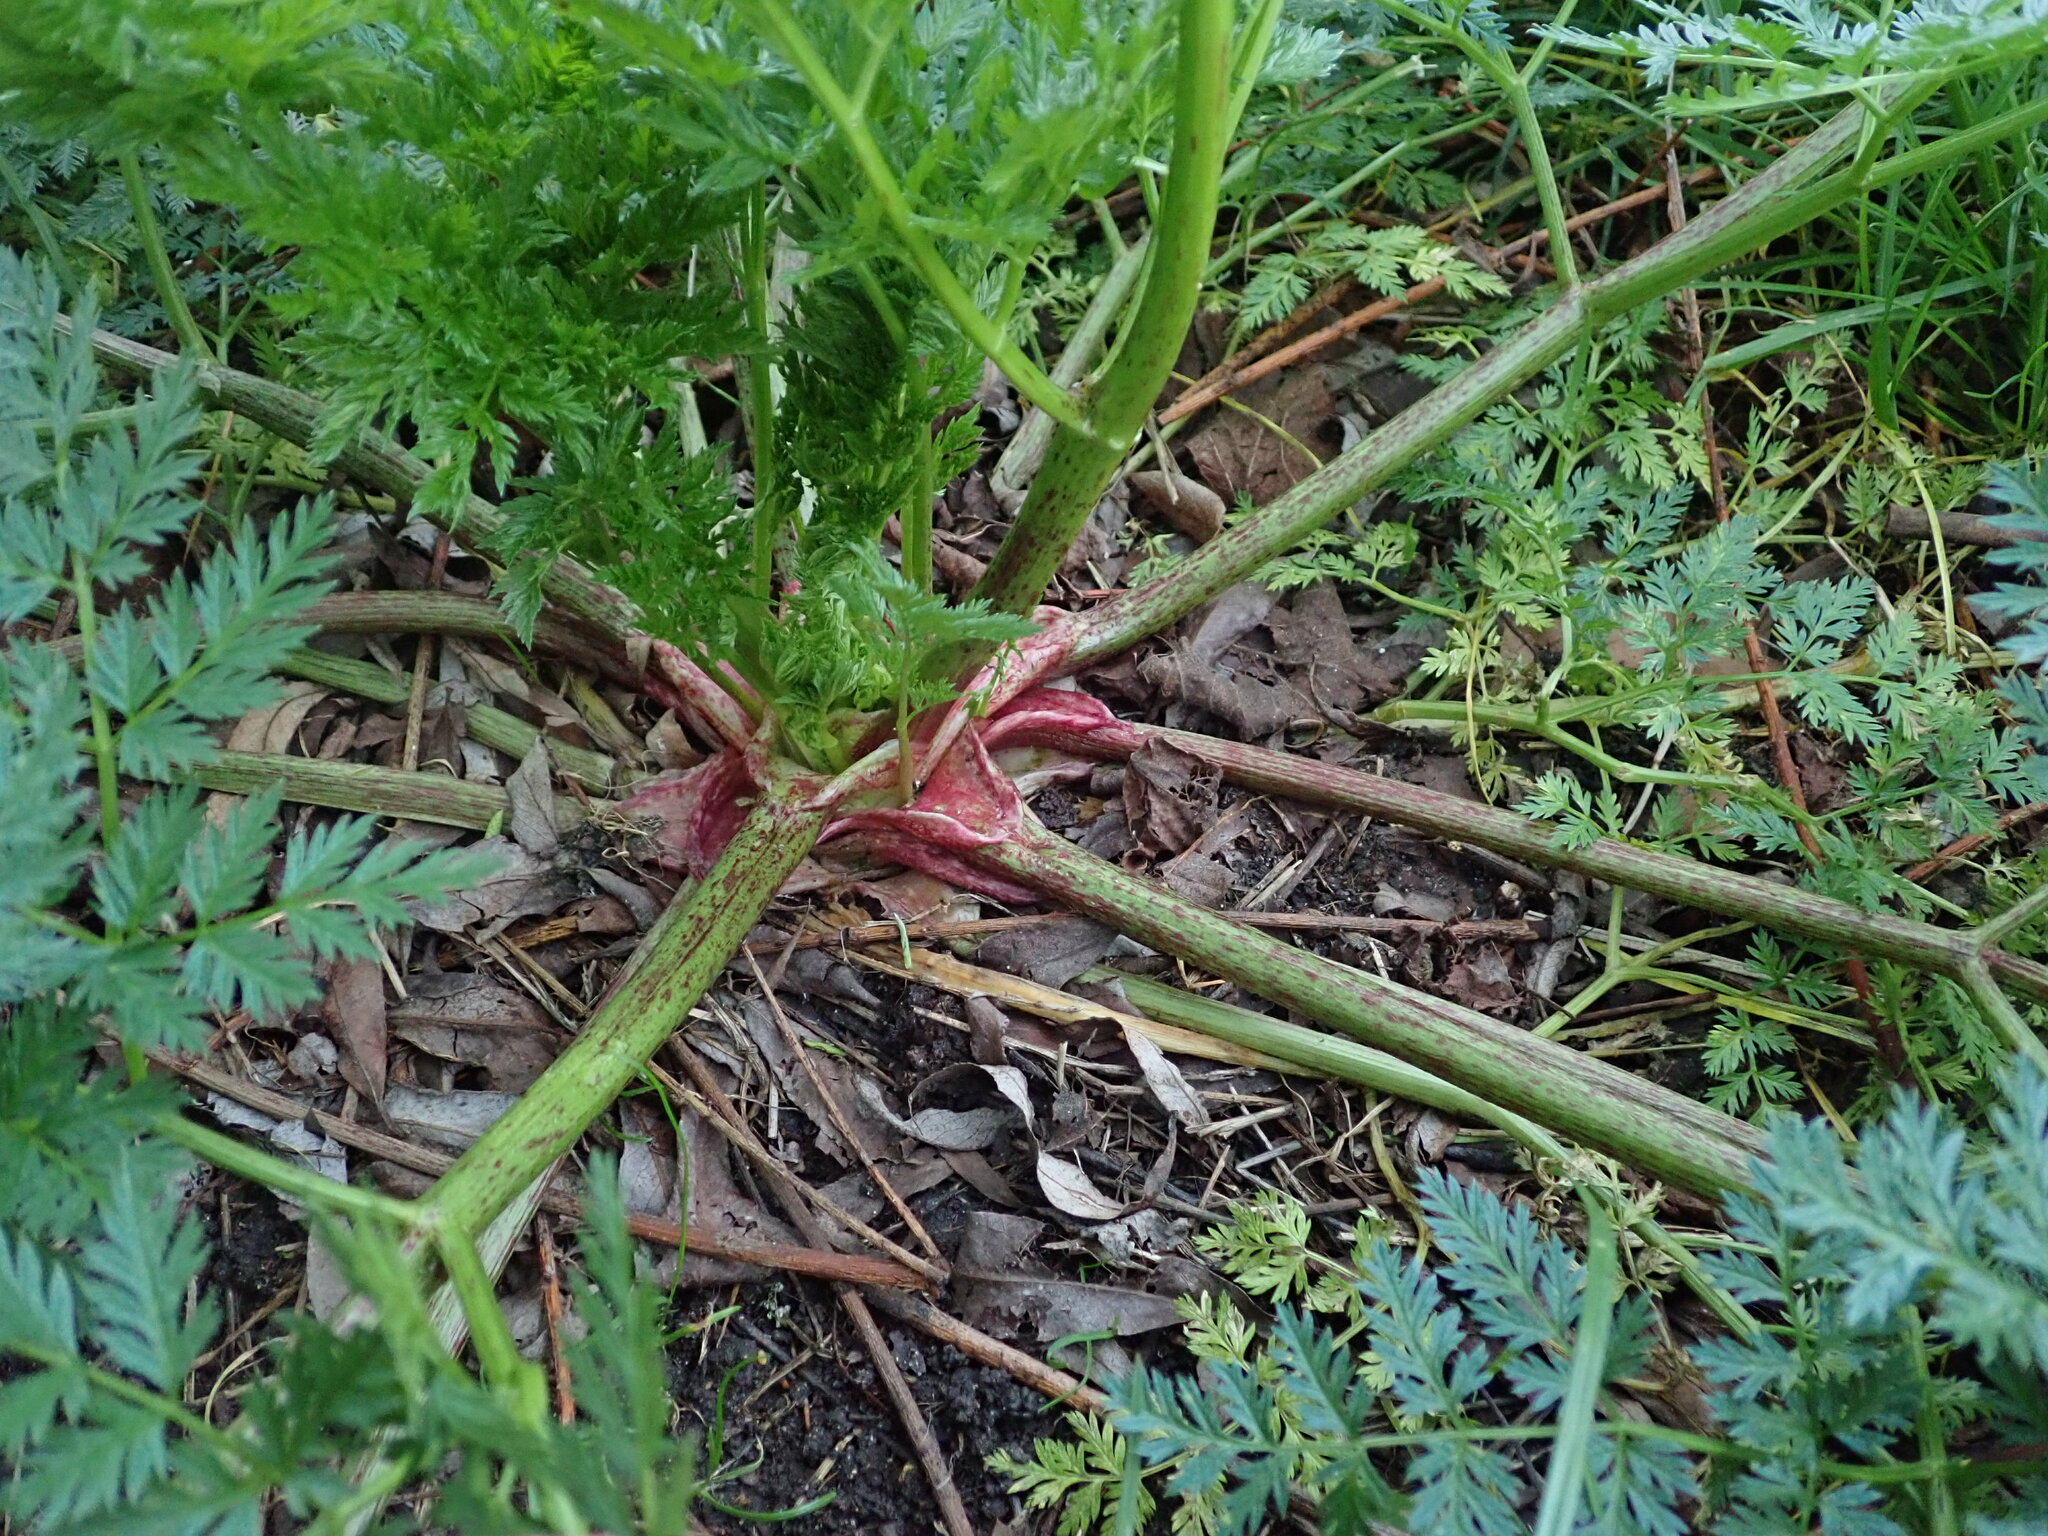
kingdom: Plantae
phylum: Tracheophyta
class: Magnoliopsida
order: Apiales
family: Apiaceae
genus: Conium
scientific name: Conium maculatum
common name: Hemlock
